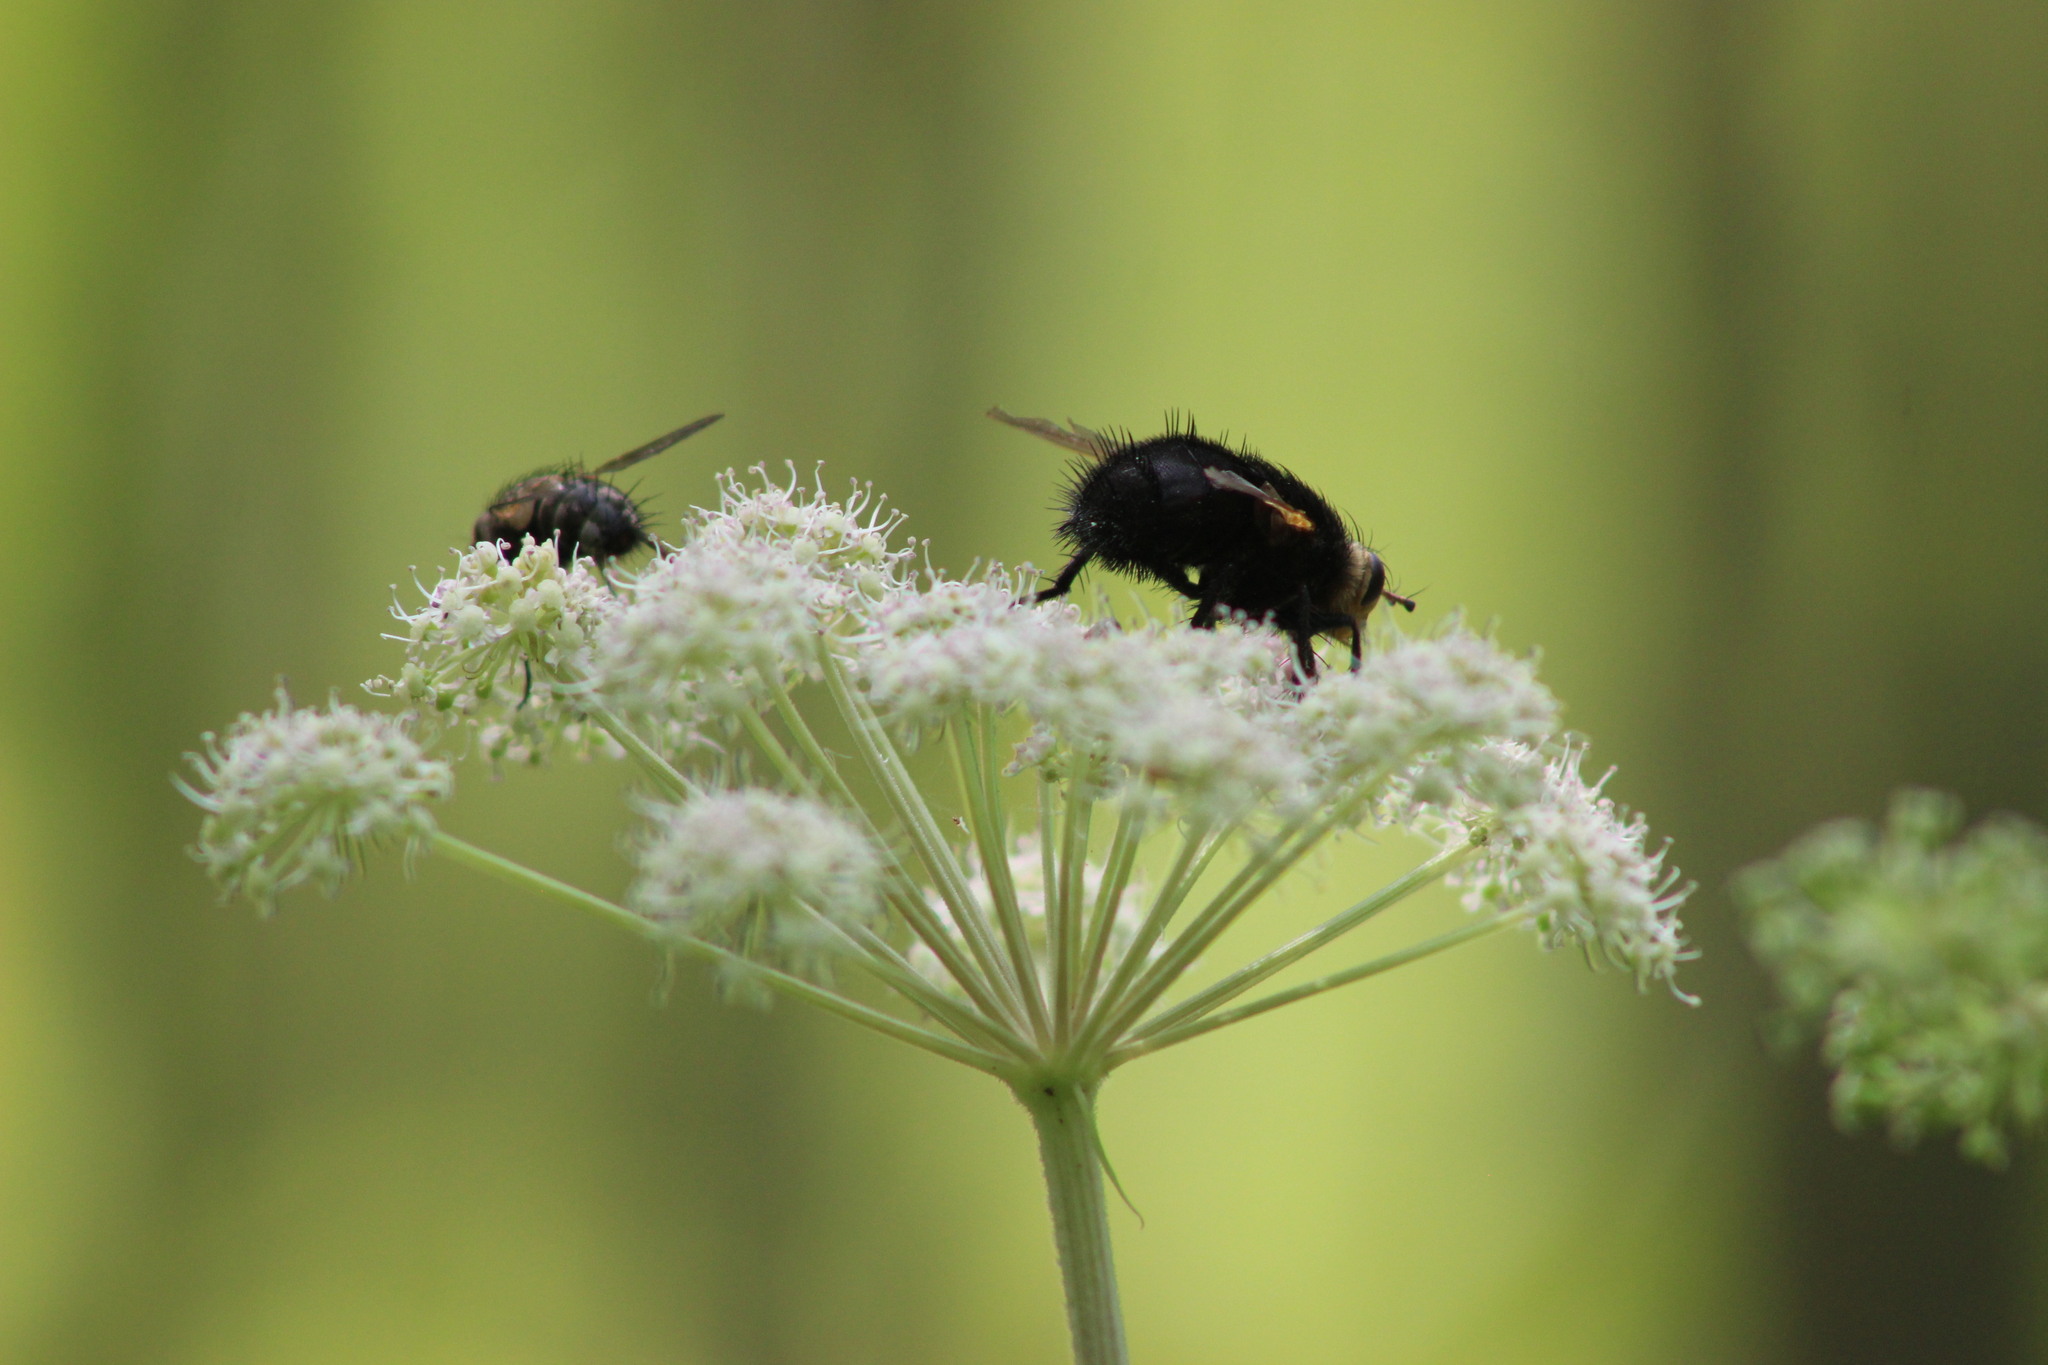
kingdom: Animalia
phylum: Arthropoda
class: Insecta
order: Diptera
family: Tachinidae
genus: Tachina
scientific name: Tachina grossa
